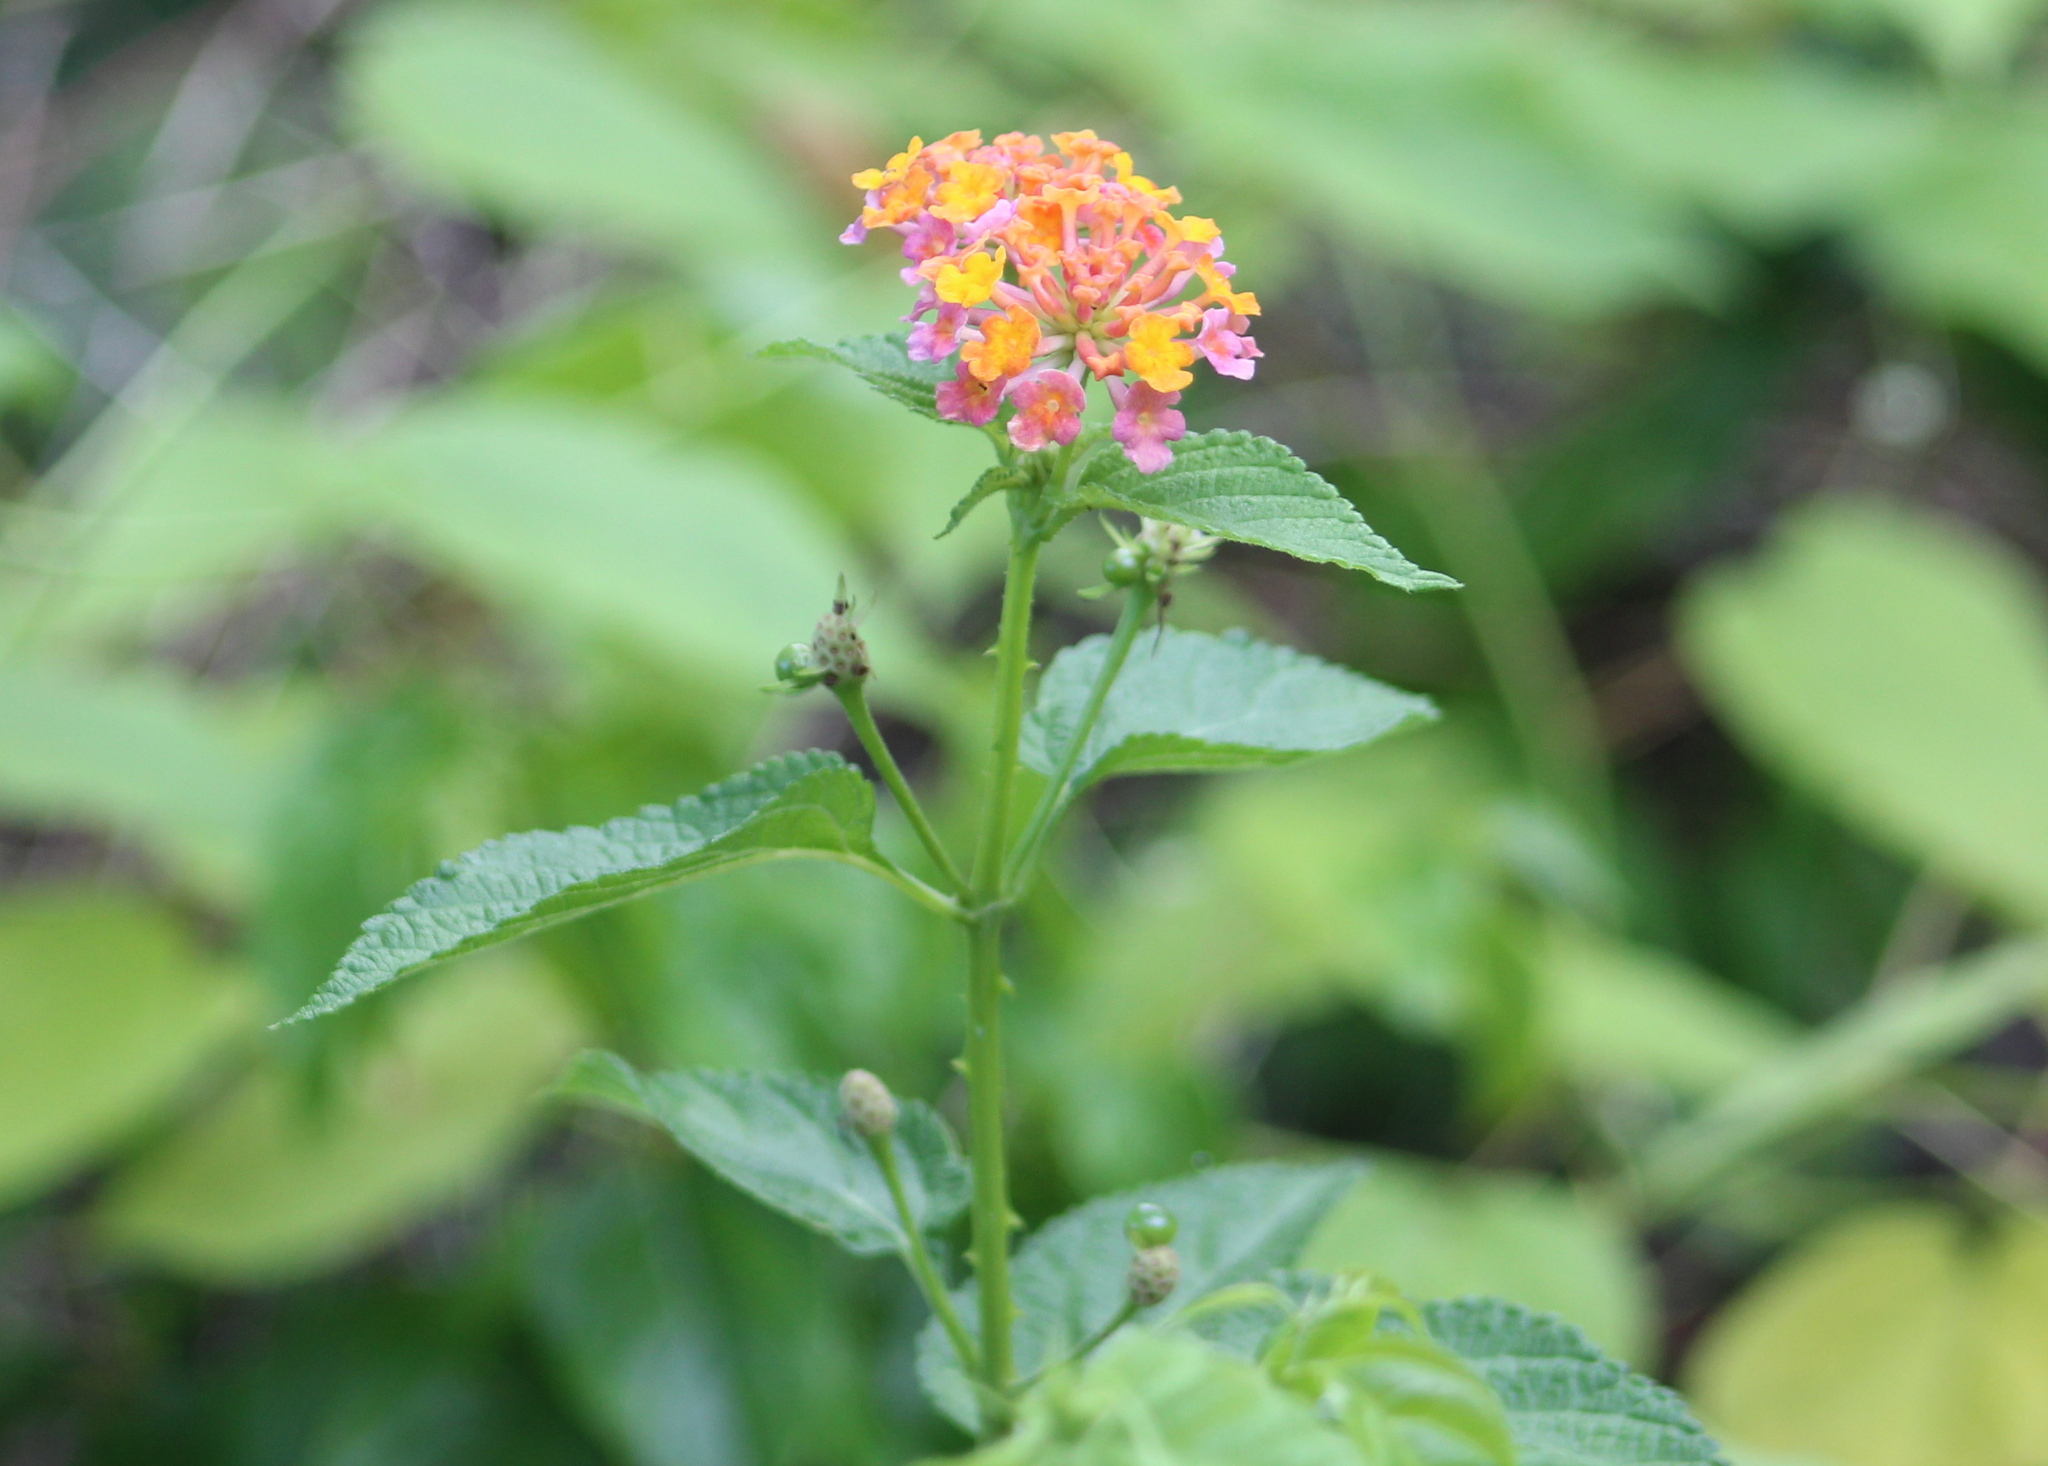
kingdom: Plantae
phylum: Tracheophyta
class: Magnoliopsida
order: Lamiales
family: Verbenaceae
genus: Lantana
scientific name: Lantana camara
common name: Lantana
